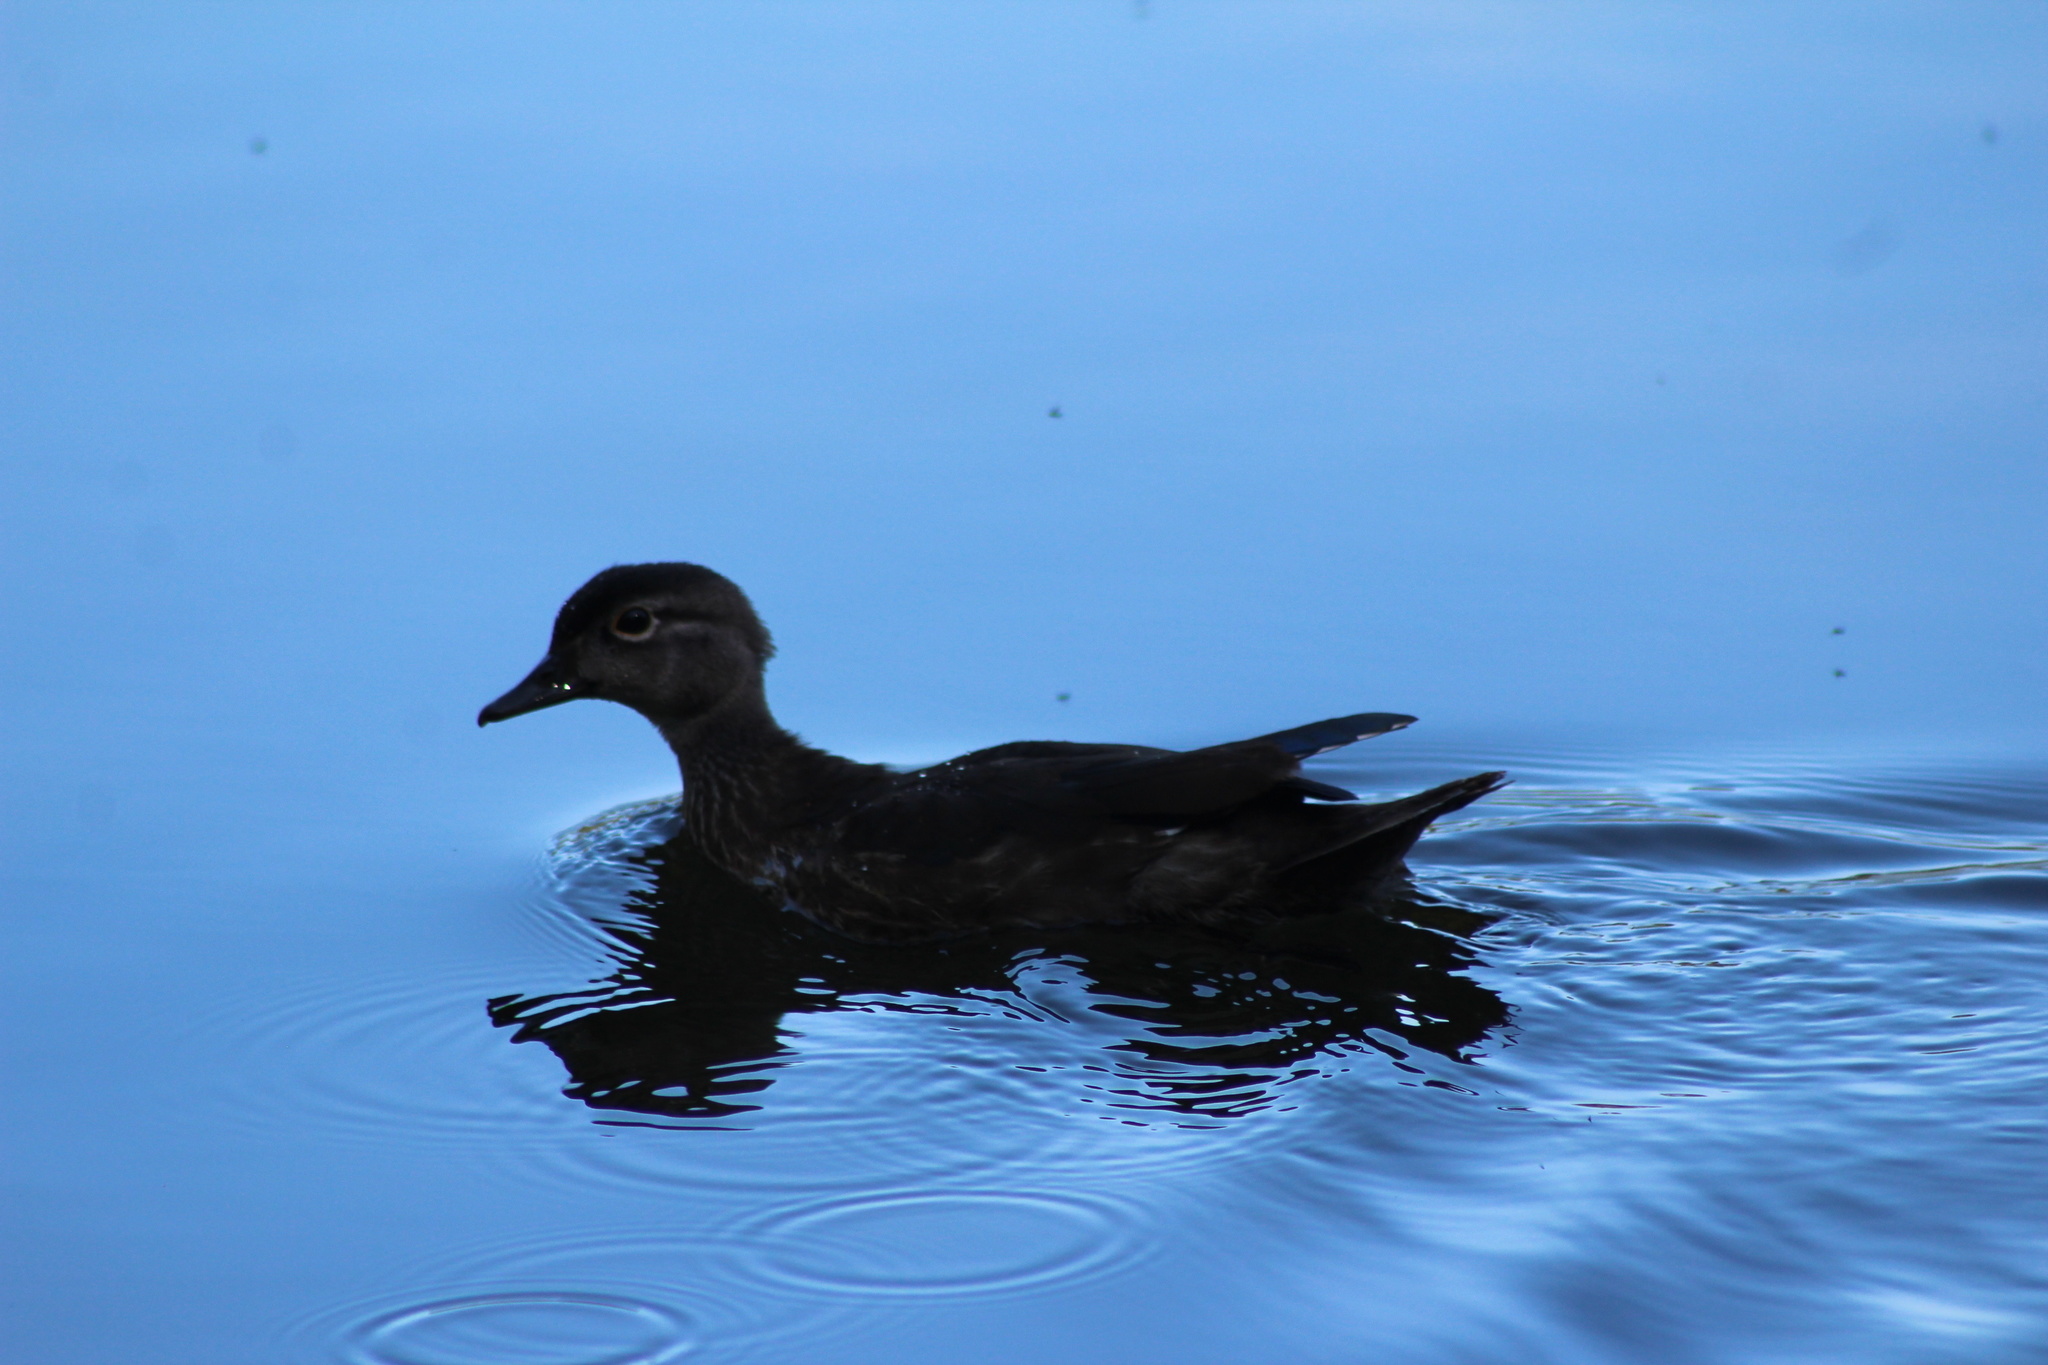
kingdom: Animalia
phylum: Chordata
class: Aves
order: Anseriformes
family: Anatidae
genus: Aix
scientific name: Aix sponsa
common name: Wood duck
